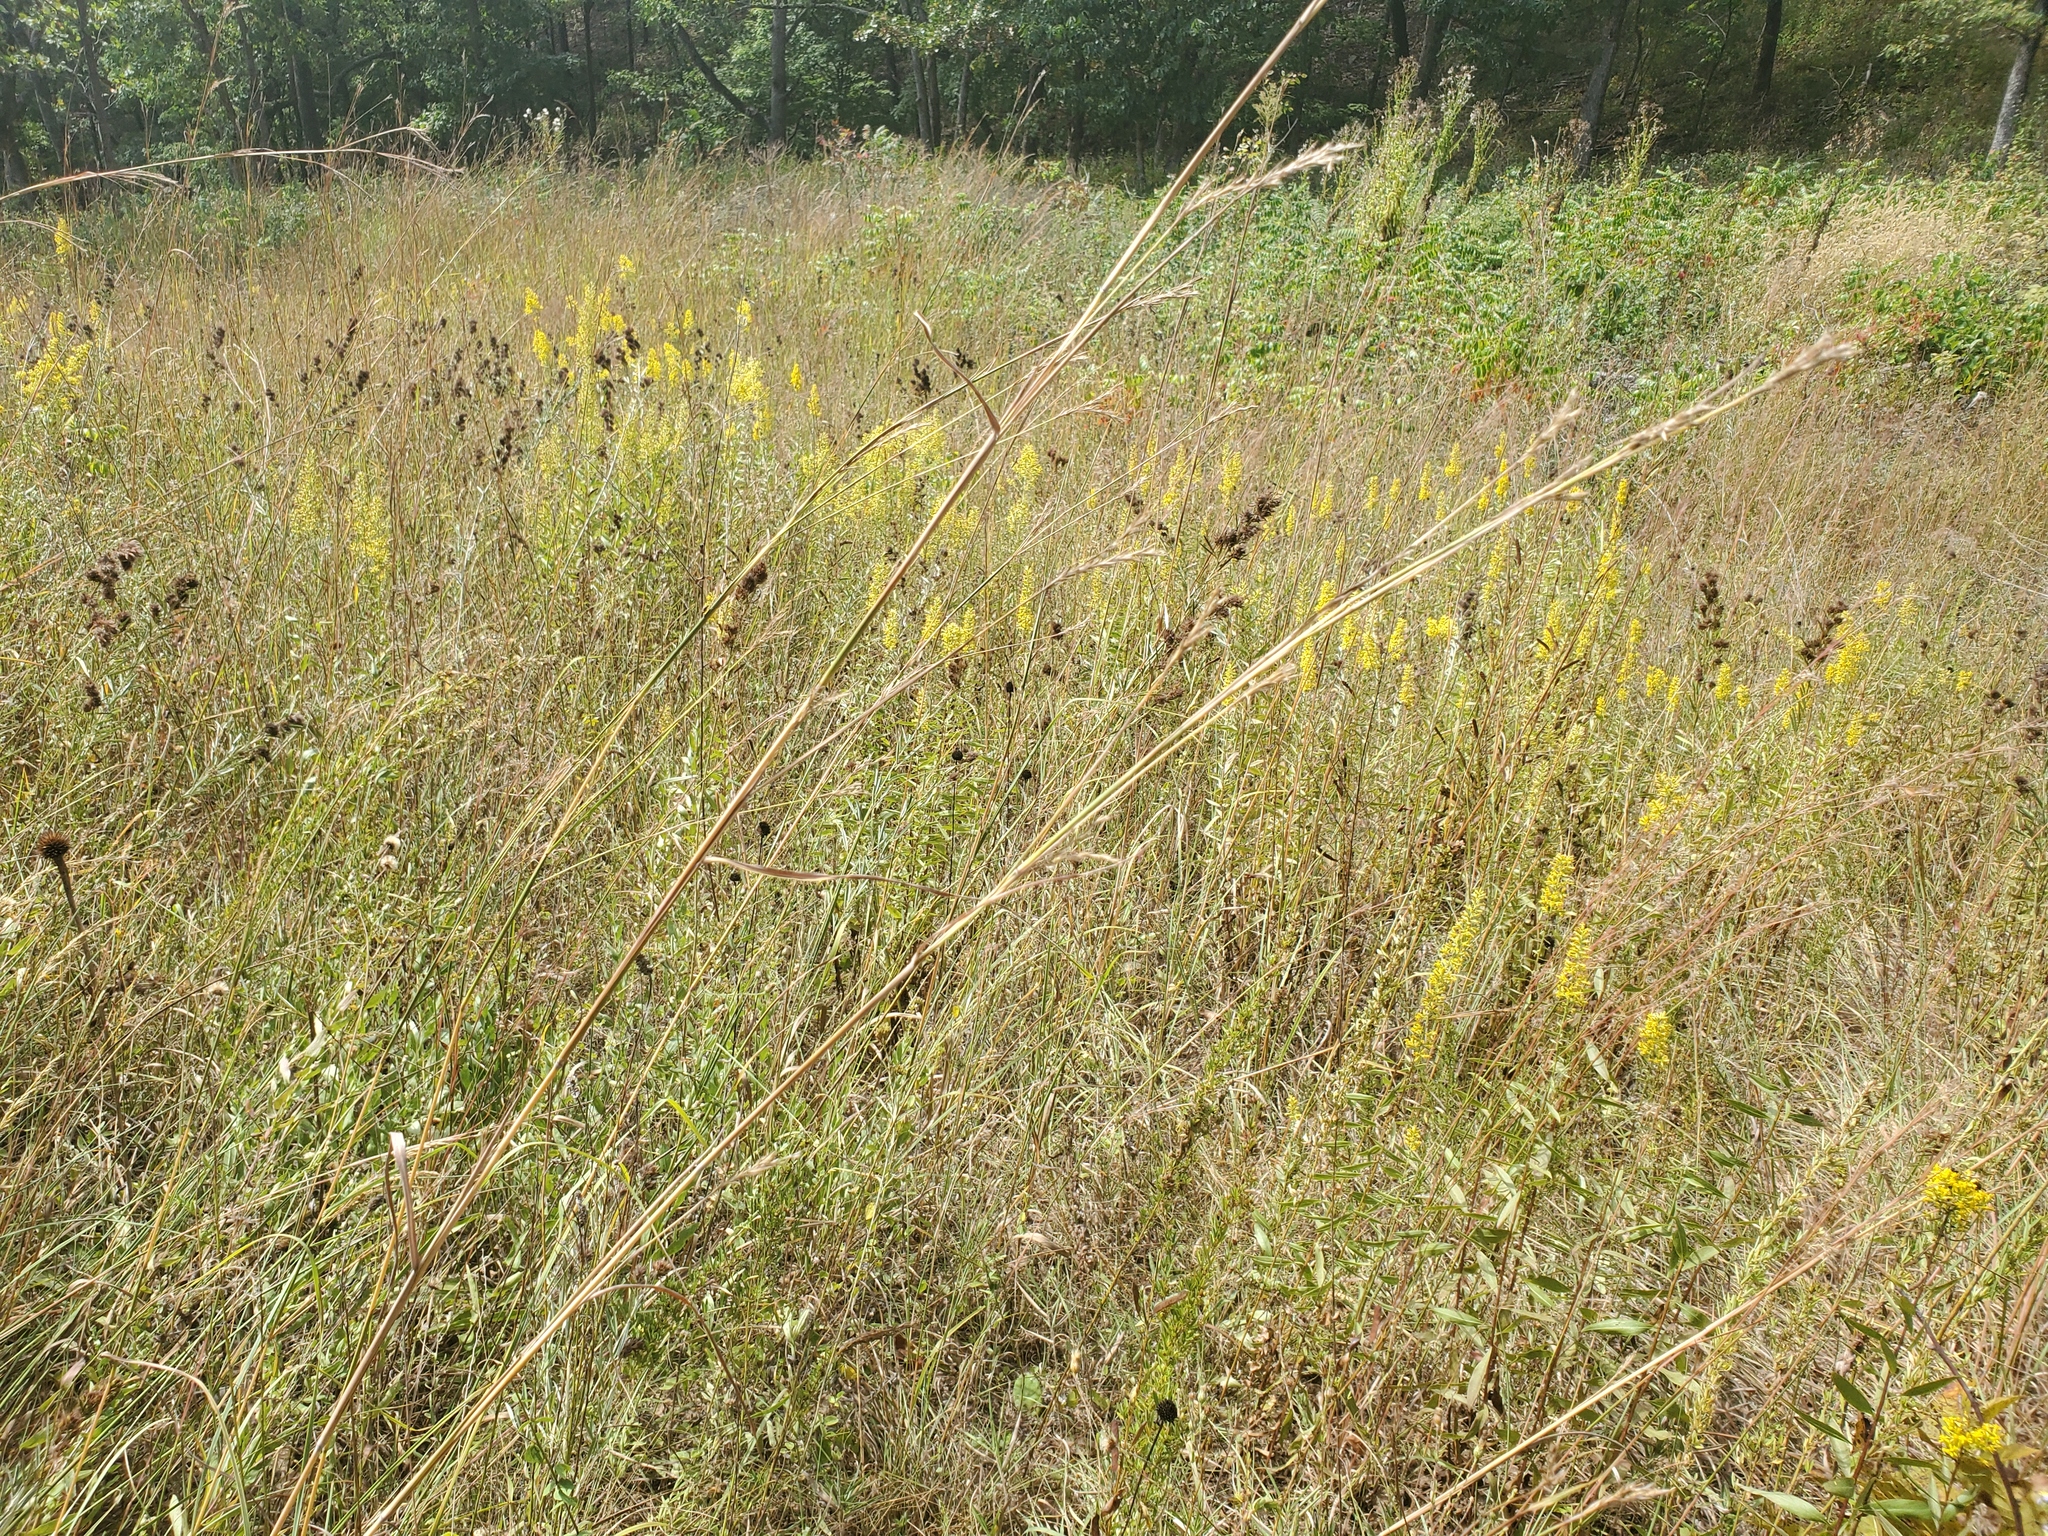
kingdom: Plantae
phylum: Tracheophyta
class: Magnoliopsida
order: Asterales
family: Asteraceae
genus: Rudbeckia
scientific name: Rudbeckia missouriensis
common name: Missouri coneflower
